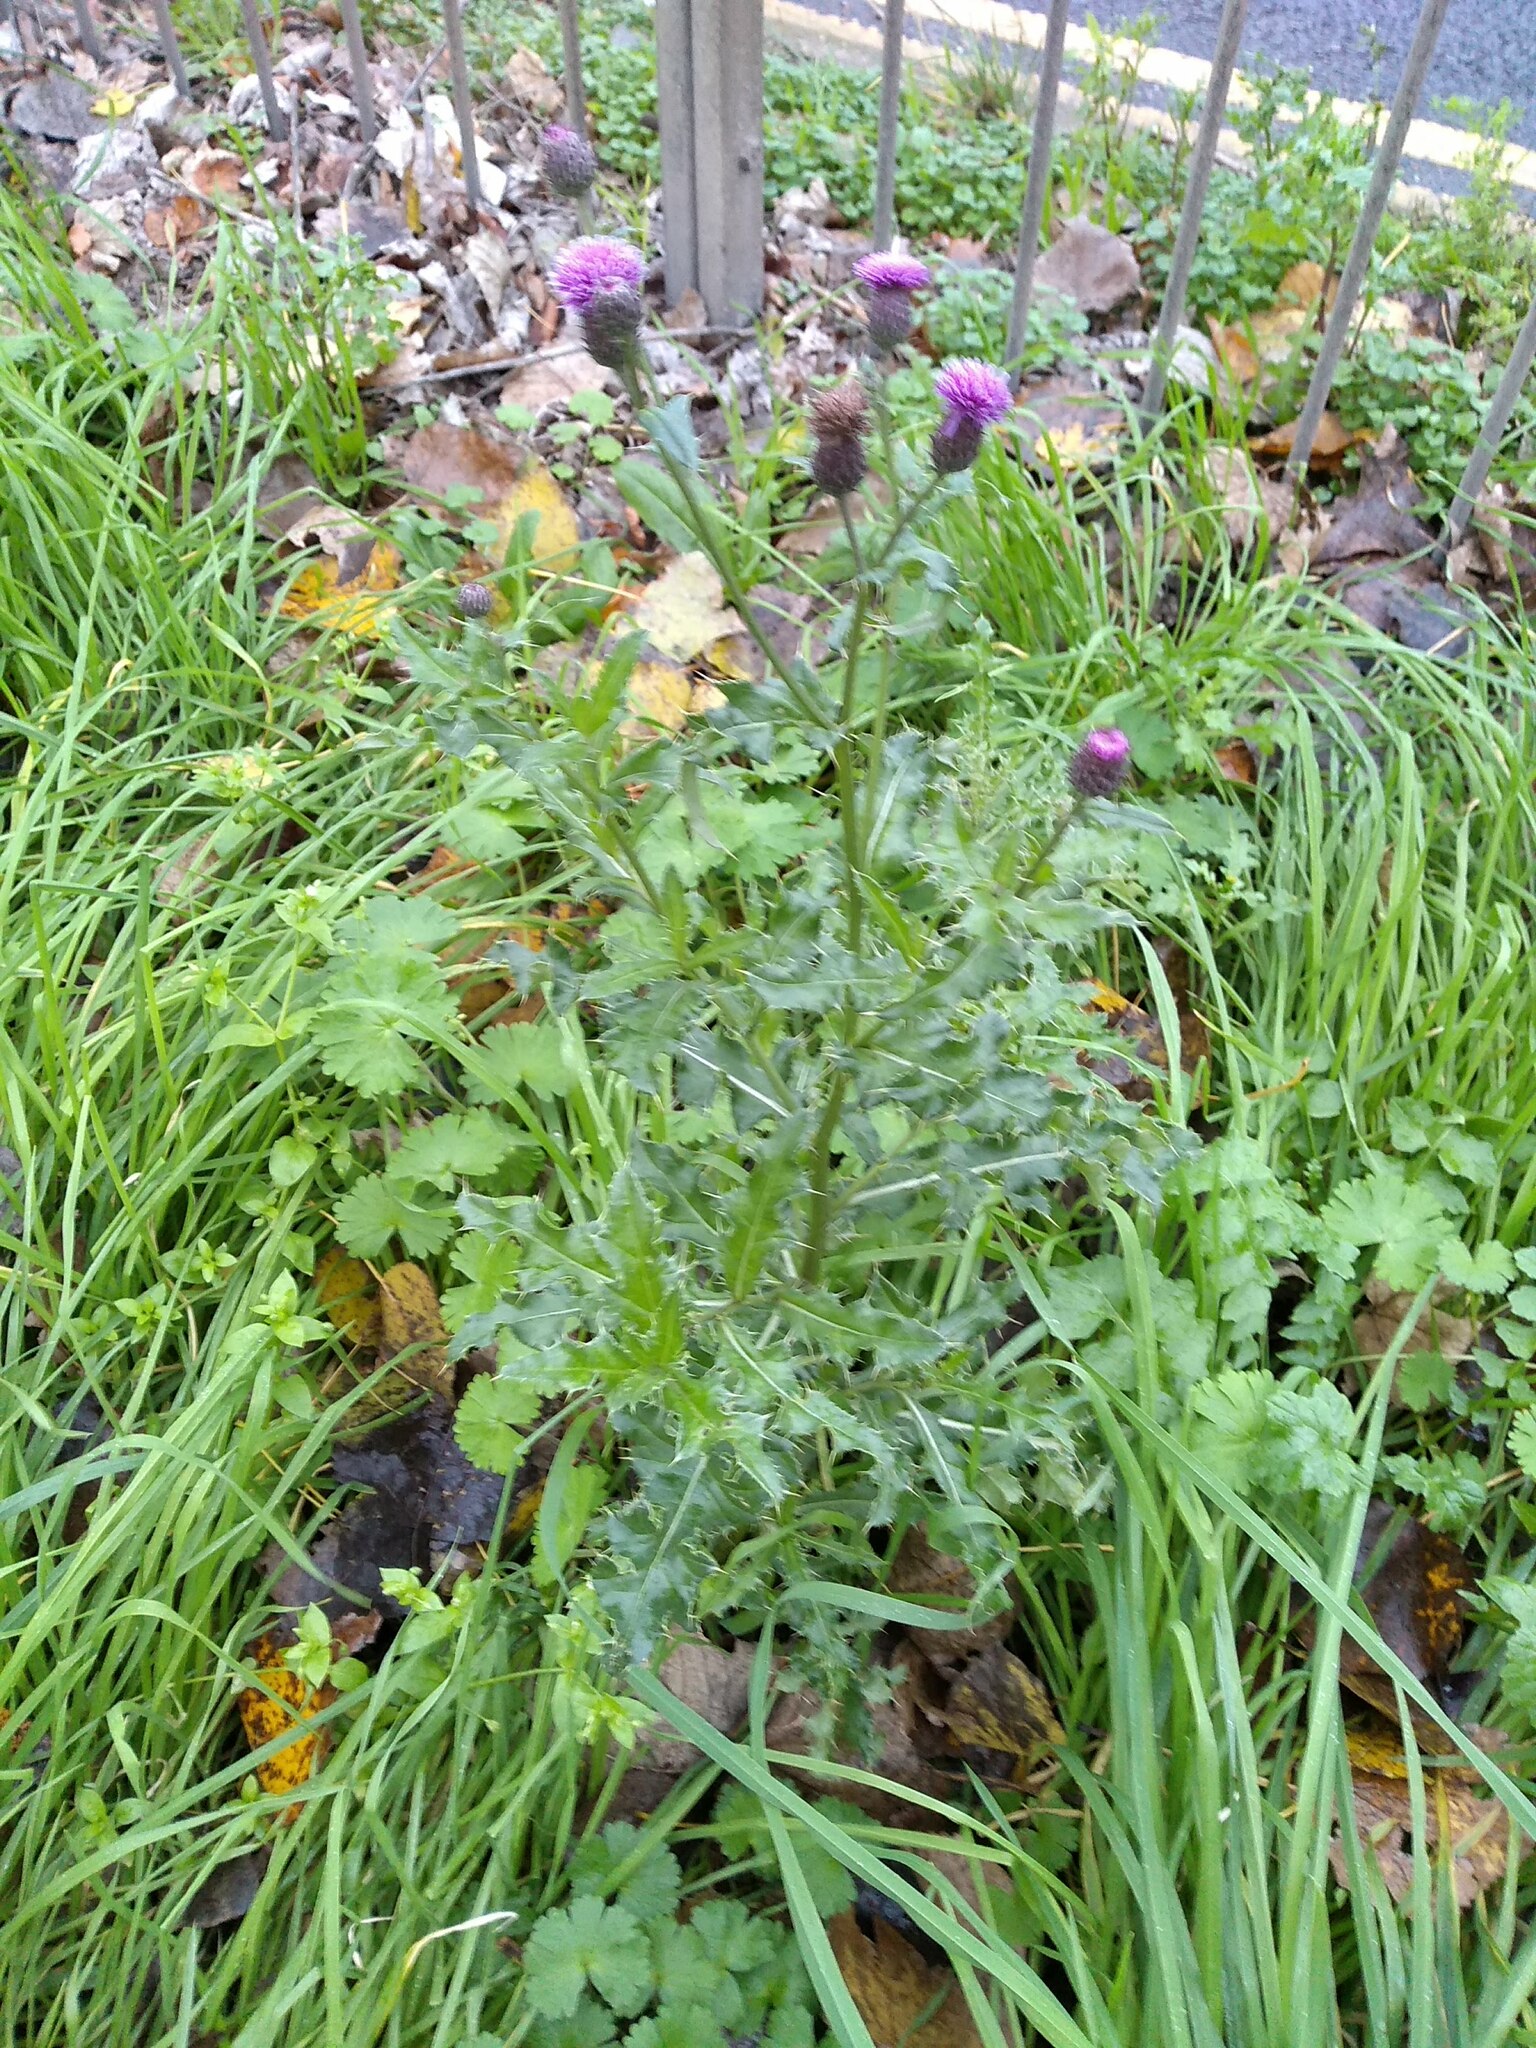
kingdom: Plantae
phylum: Tracheophyta
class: Magnoliopsida
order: Asterales
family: Asteraceae
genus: Cirsium
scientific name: Cirsium arvense
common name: Creeping thistle
